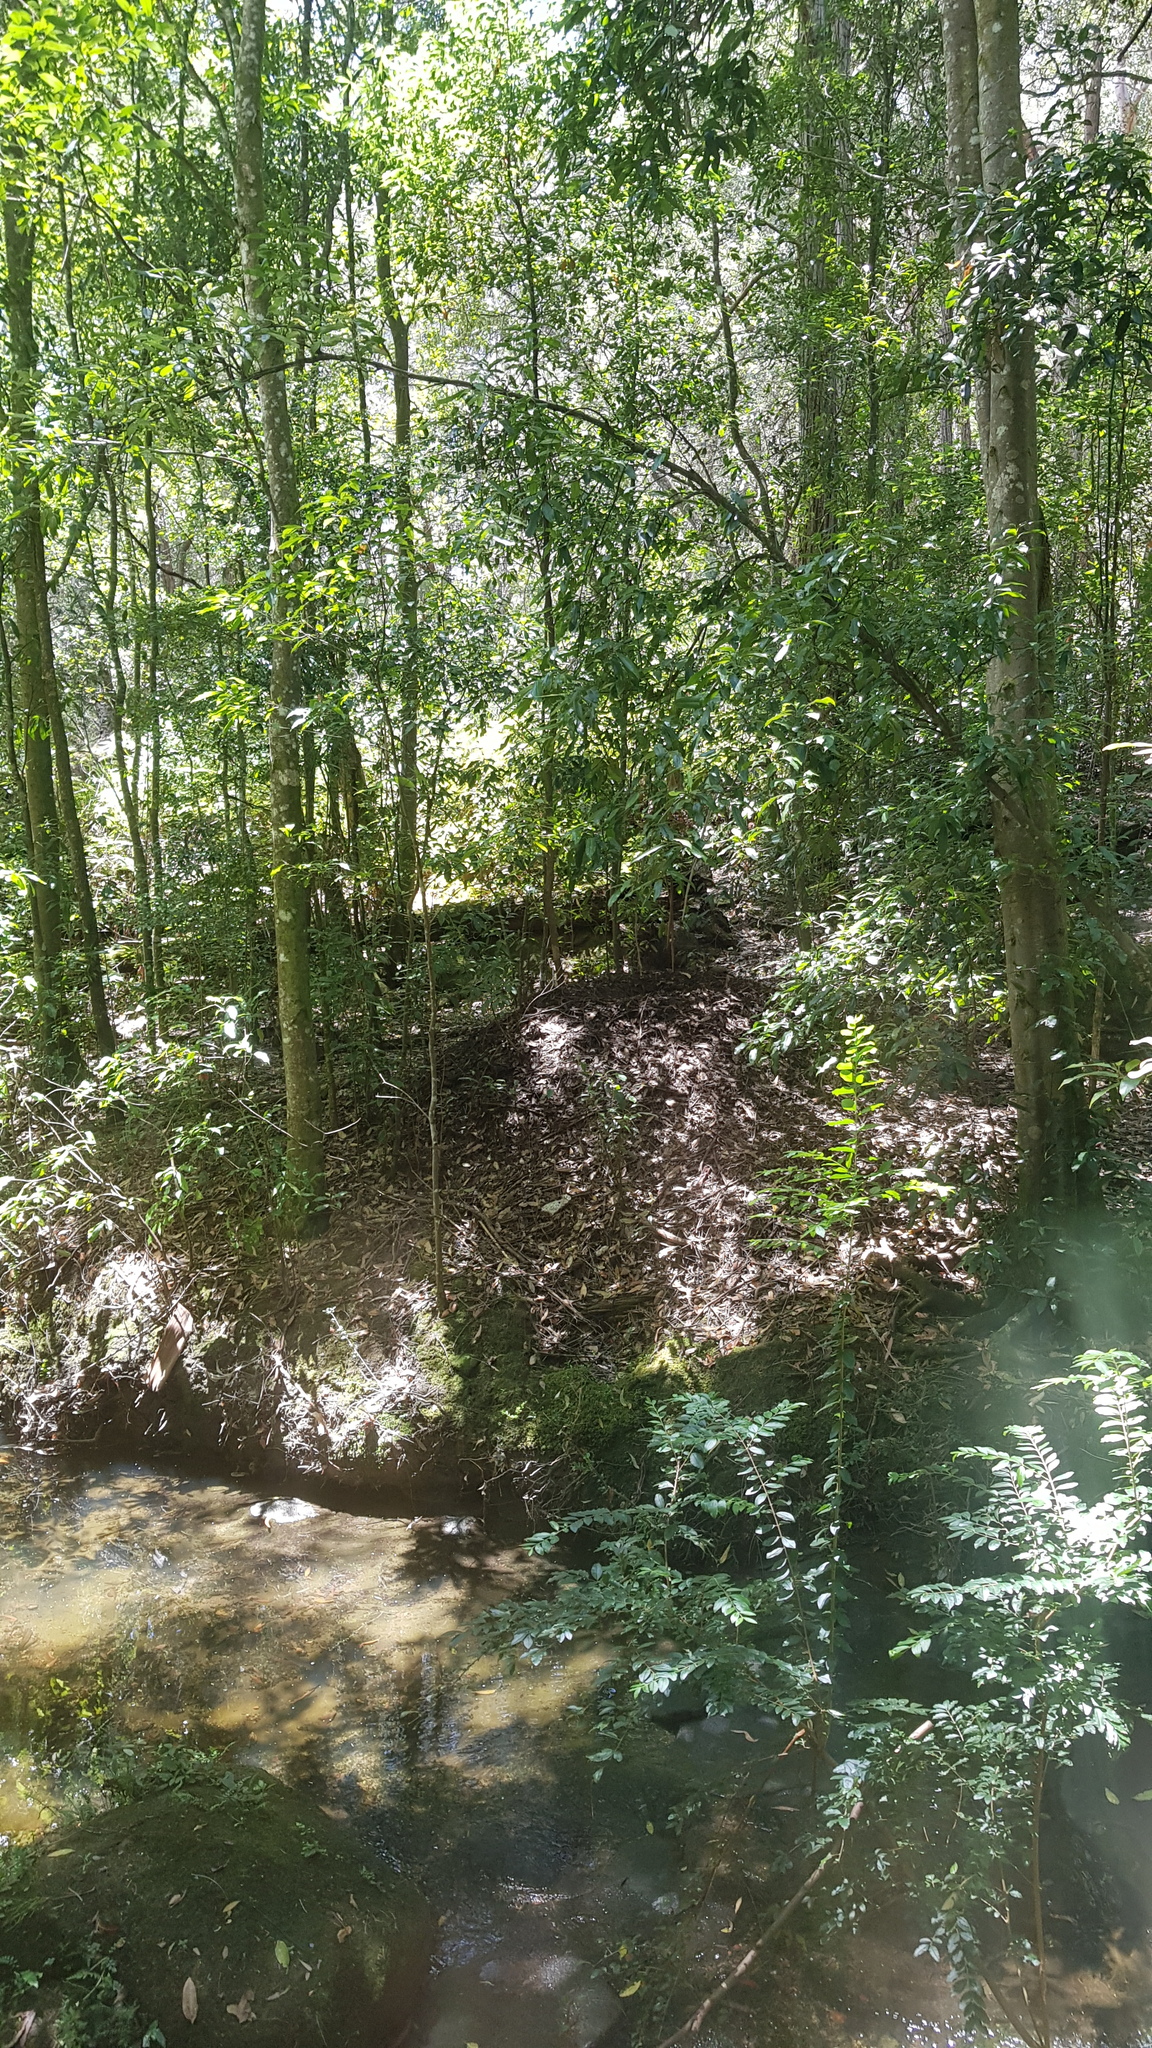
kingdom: Animalia
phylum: Chordata
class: Aves
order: Galliformes
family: Megapodiidae
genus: Alectura
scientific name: Alectura lathami
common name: Australian brushturkey
